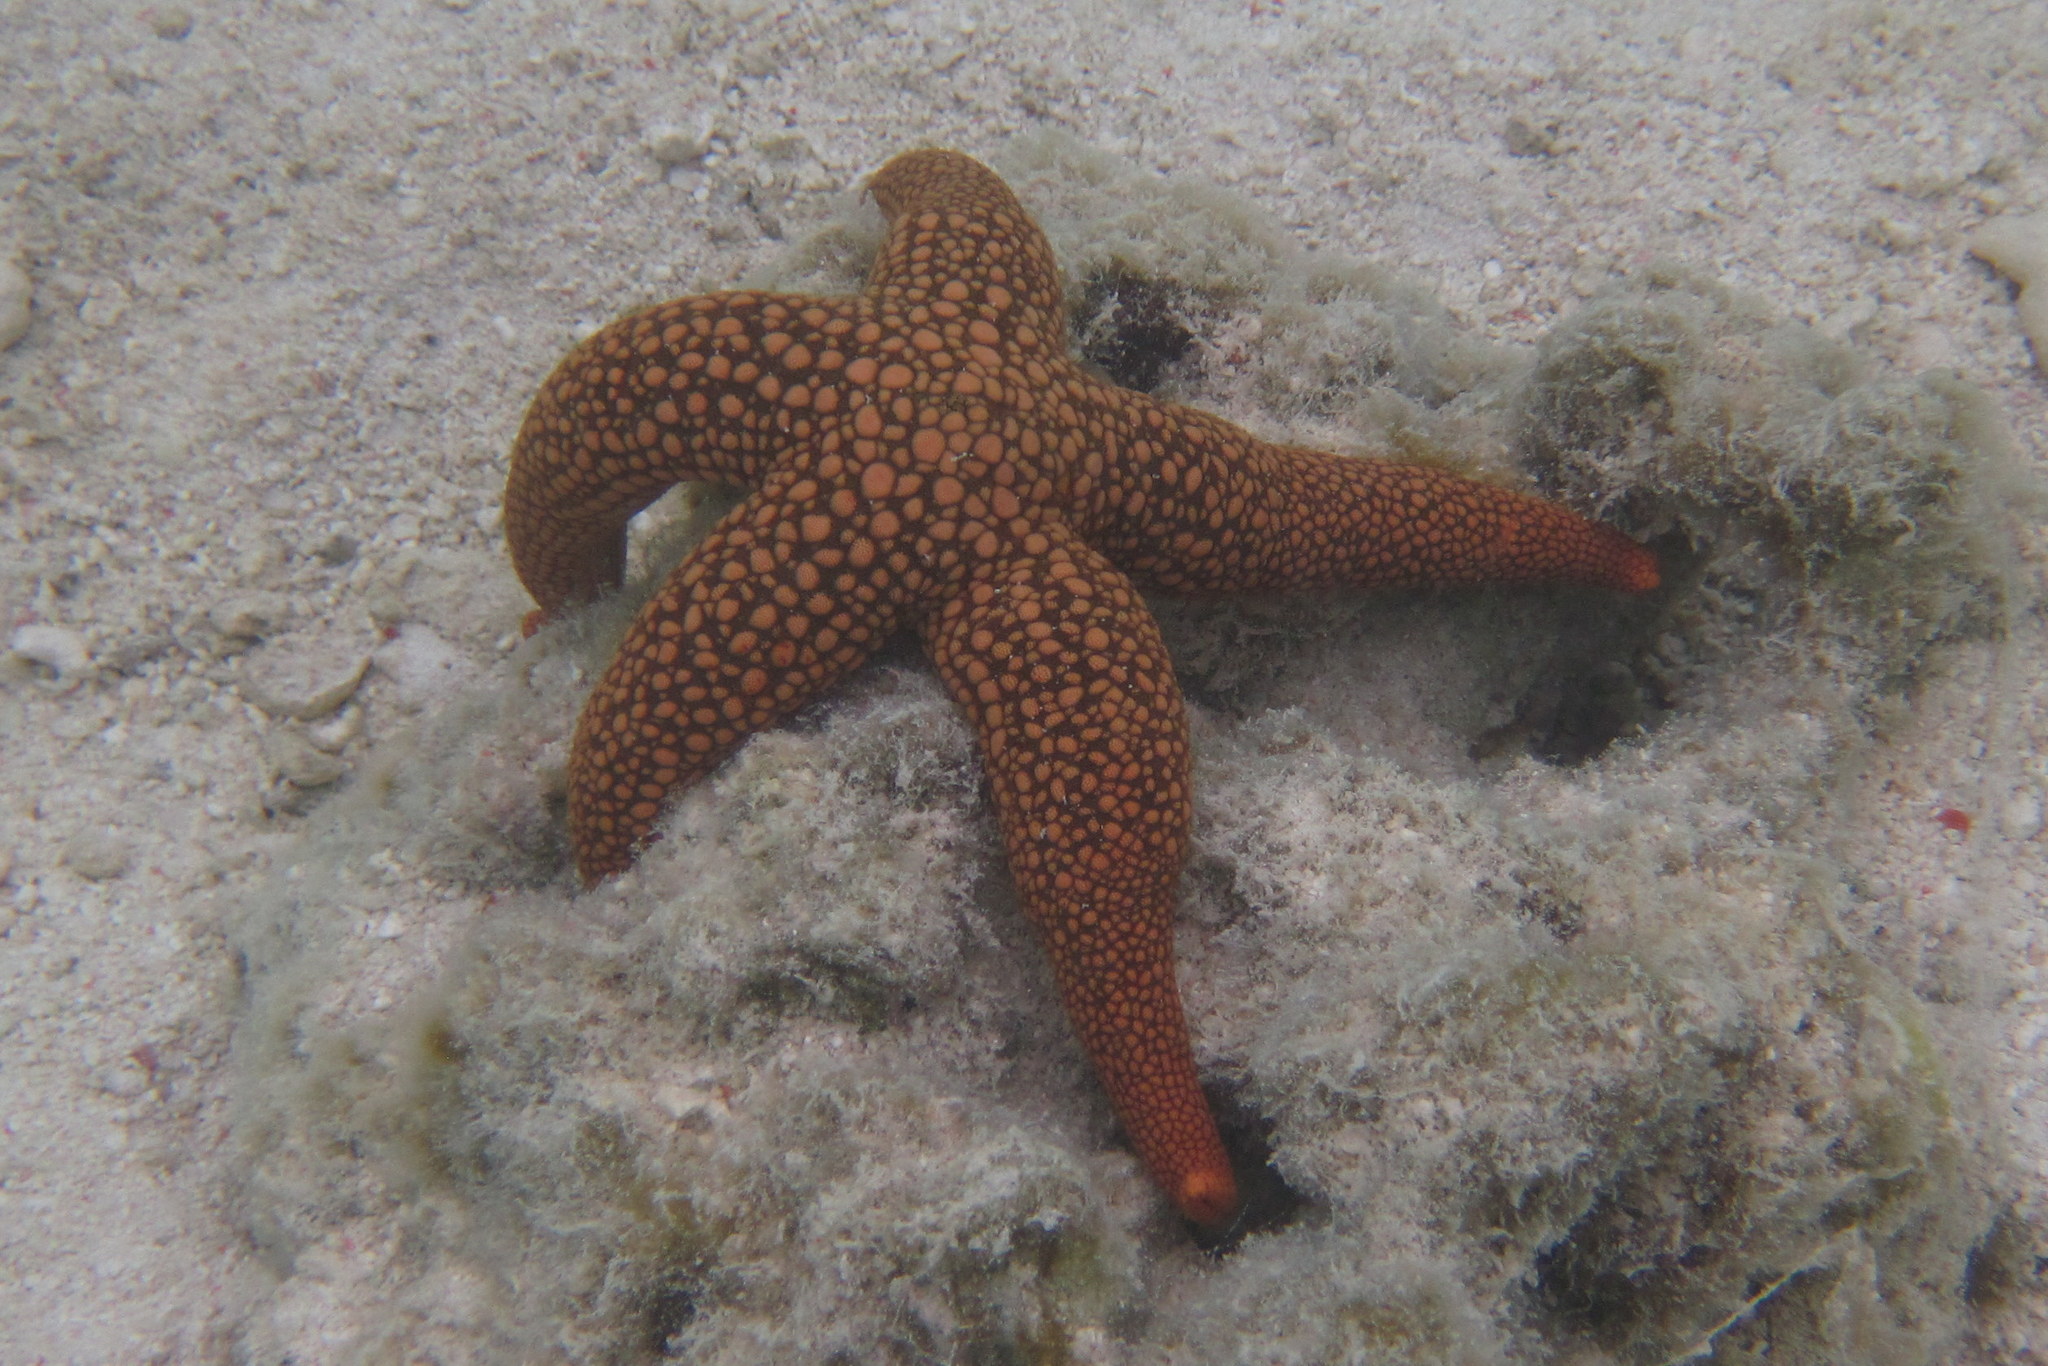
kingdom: Animalia
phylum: Echinodermata
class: Asteroidea
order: Valvatida
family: Ophidiasteridae
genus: Nardoa
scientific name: Nardoa novaecaledoniae
